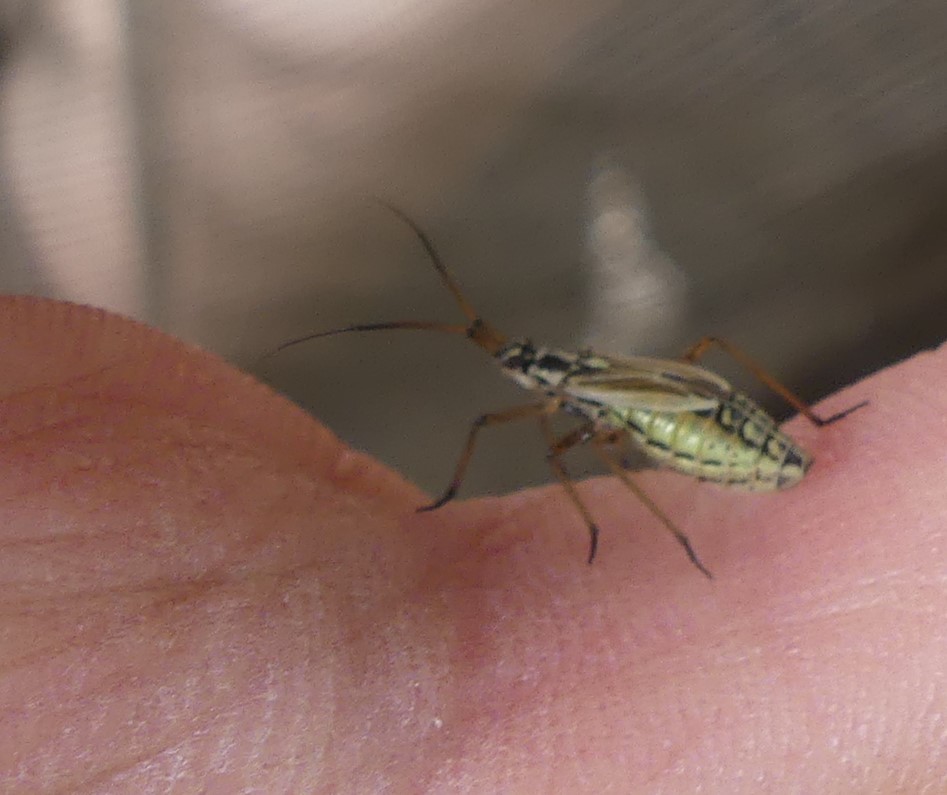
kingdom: Animalia
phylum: Arthropoda
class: Insecta
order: Hemiptera
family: Miridae
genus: Leptopterna
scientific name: Leptopterna dolabrata
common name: Meadow plant bug
